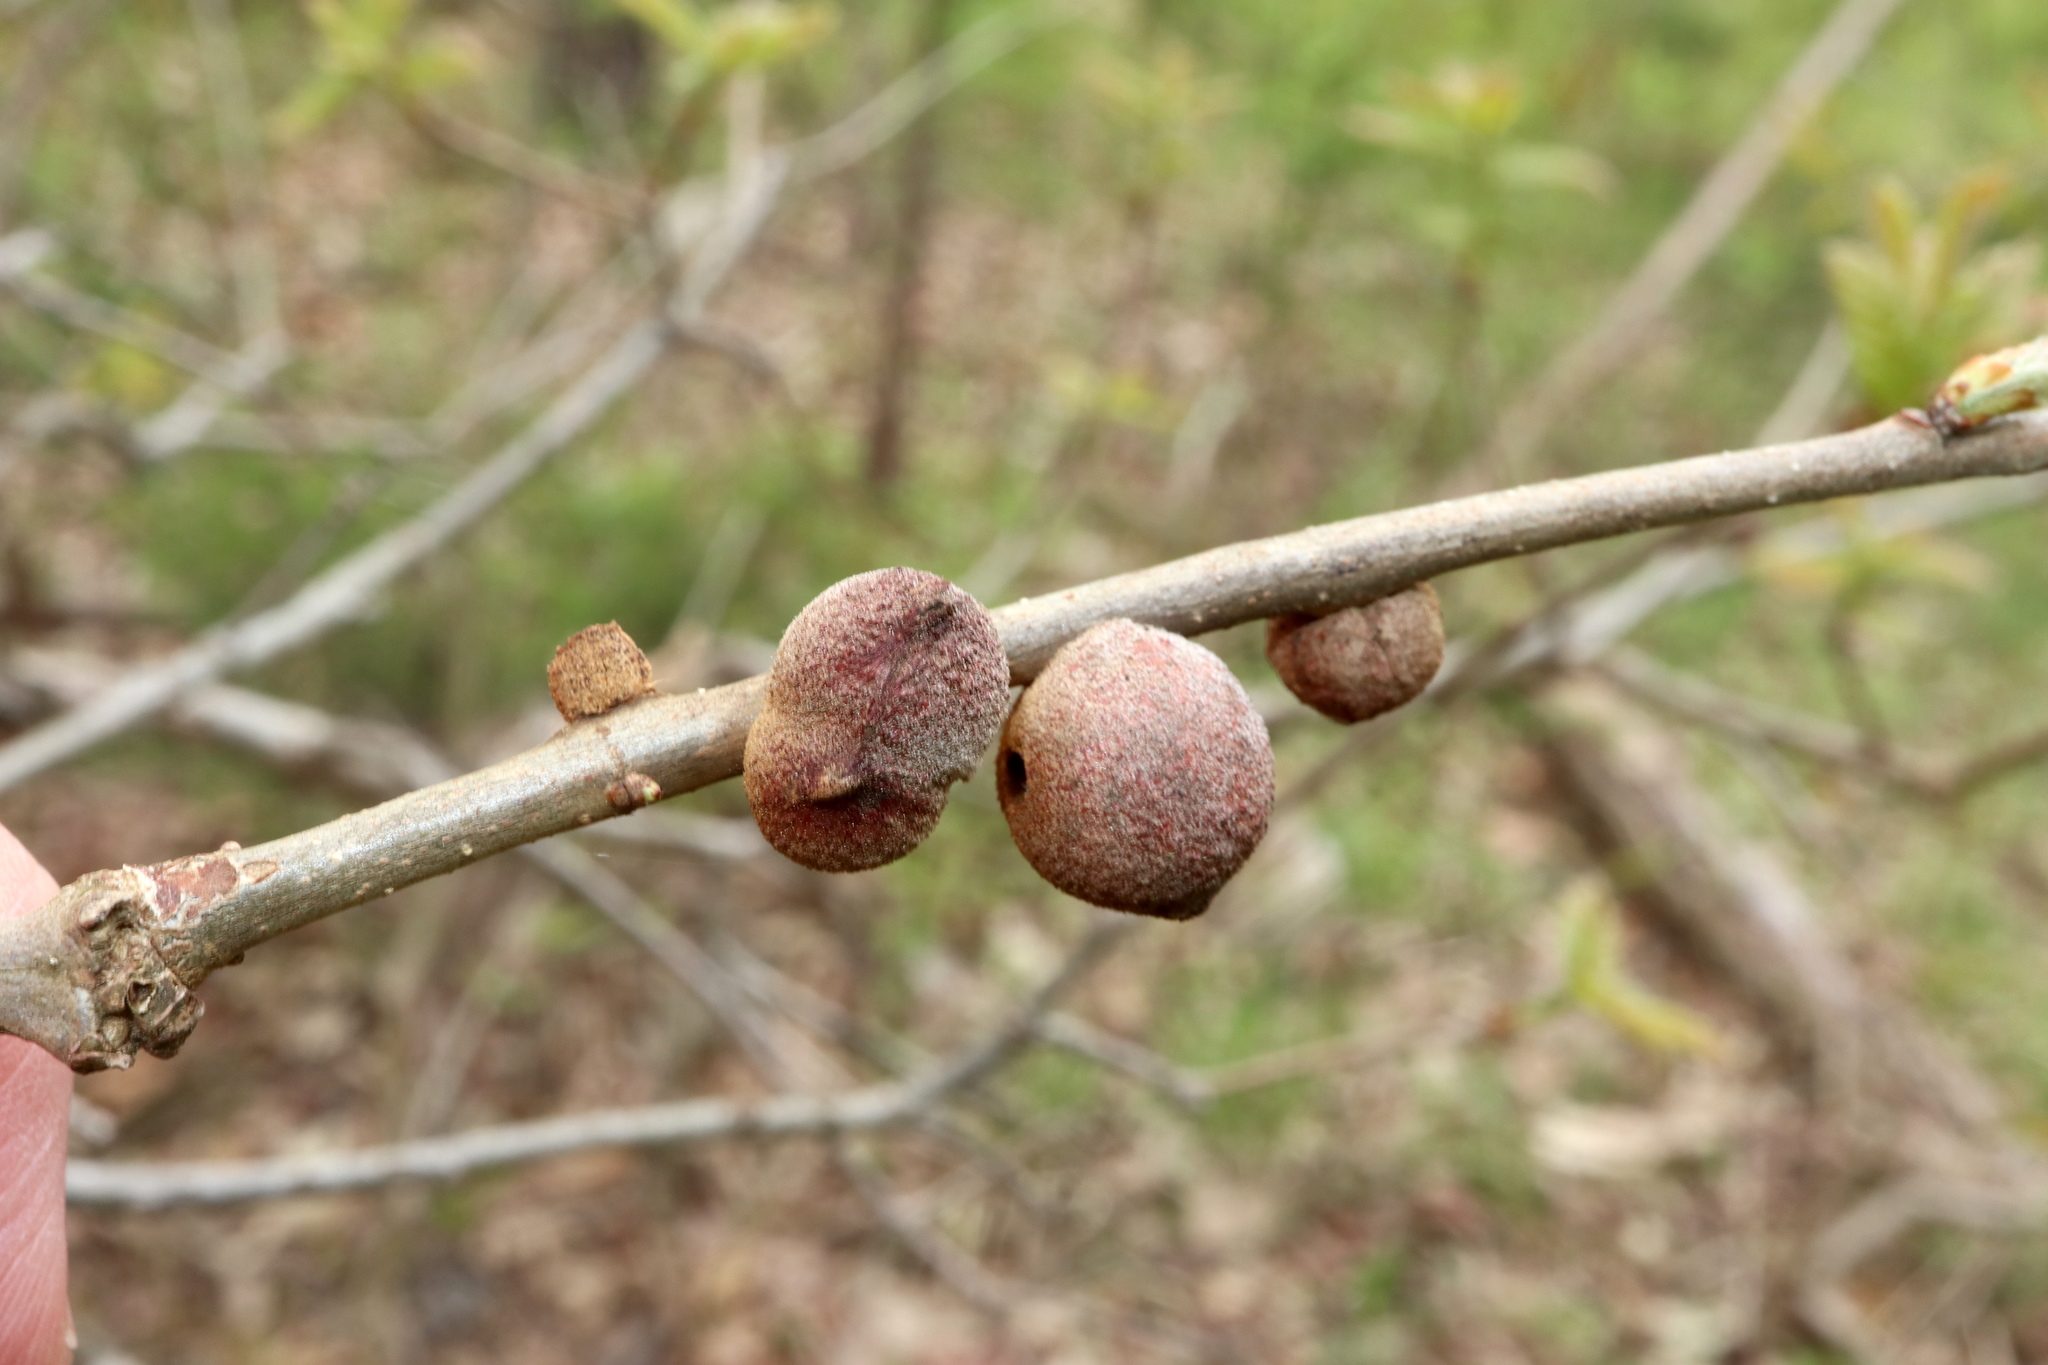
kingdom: Animalia
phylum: Arthropoda
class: Insecta
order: Hymenoptera
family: Cynipidae
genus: Disholcaspis
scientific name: Disholcaspis
